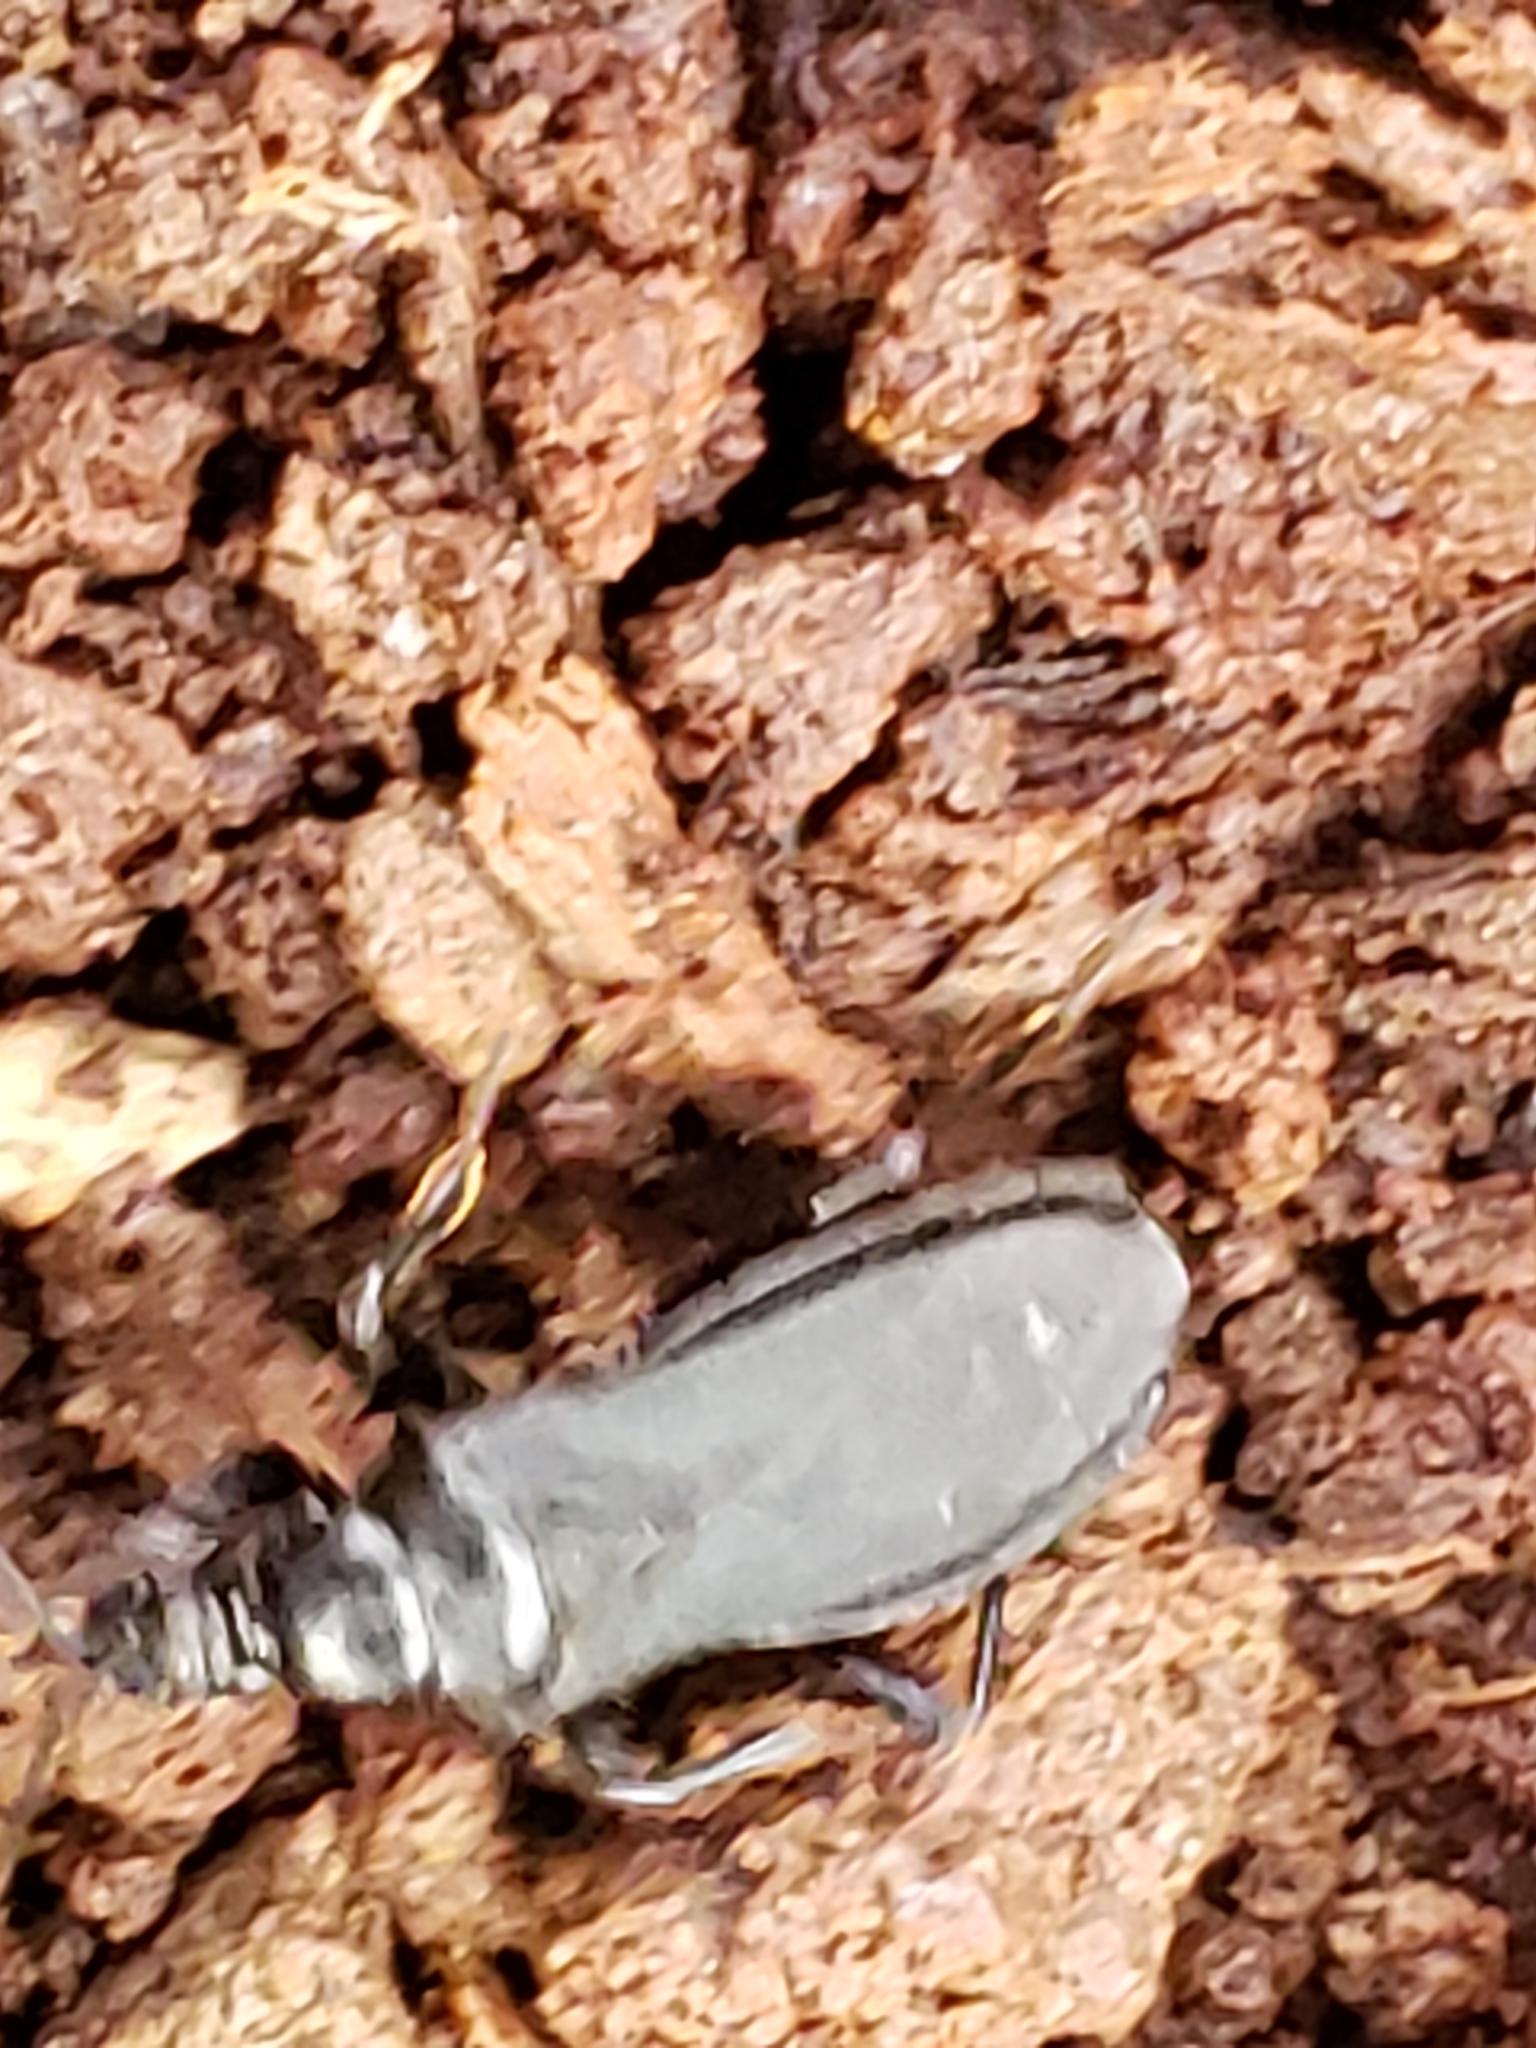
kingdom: Animalia
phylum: Arthropoda
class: Insecta
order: Hemiptera
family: Reduviidae
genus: Melanolestes
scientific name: Melanolestes picipes
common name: Assassin bug
